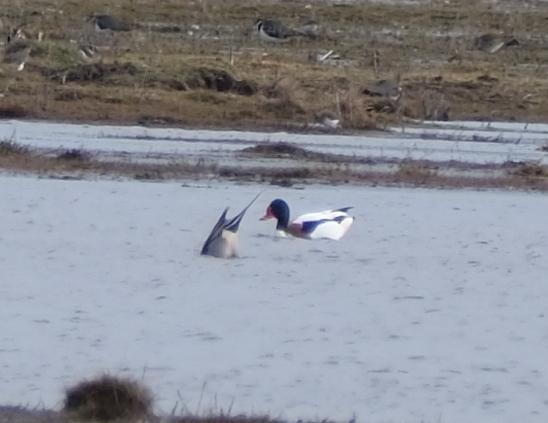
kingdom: Animalia
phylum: Chordata
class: Aves
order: Anseriformes
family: Anatidae
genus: Tadorna
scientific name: Tadorna tadorna
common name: Common shelduck
